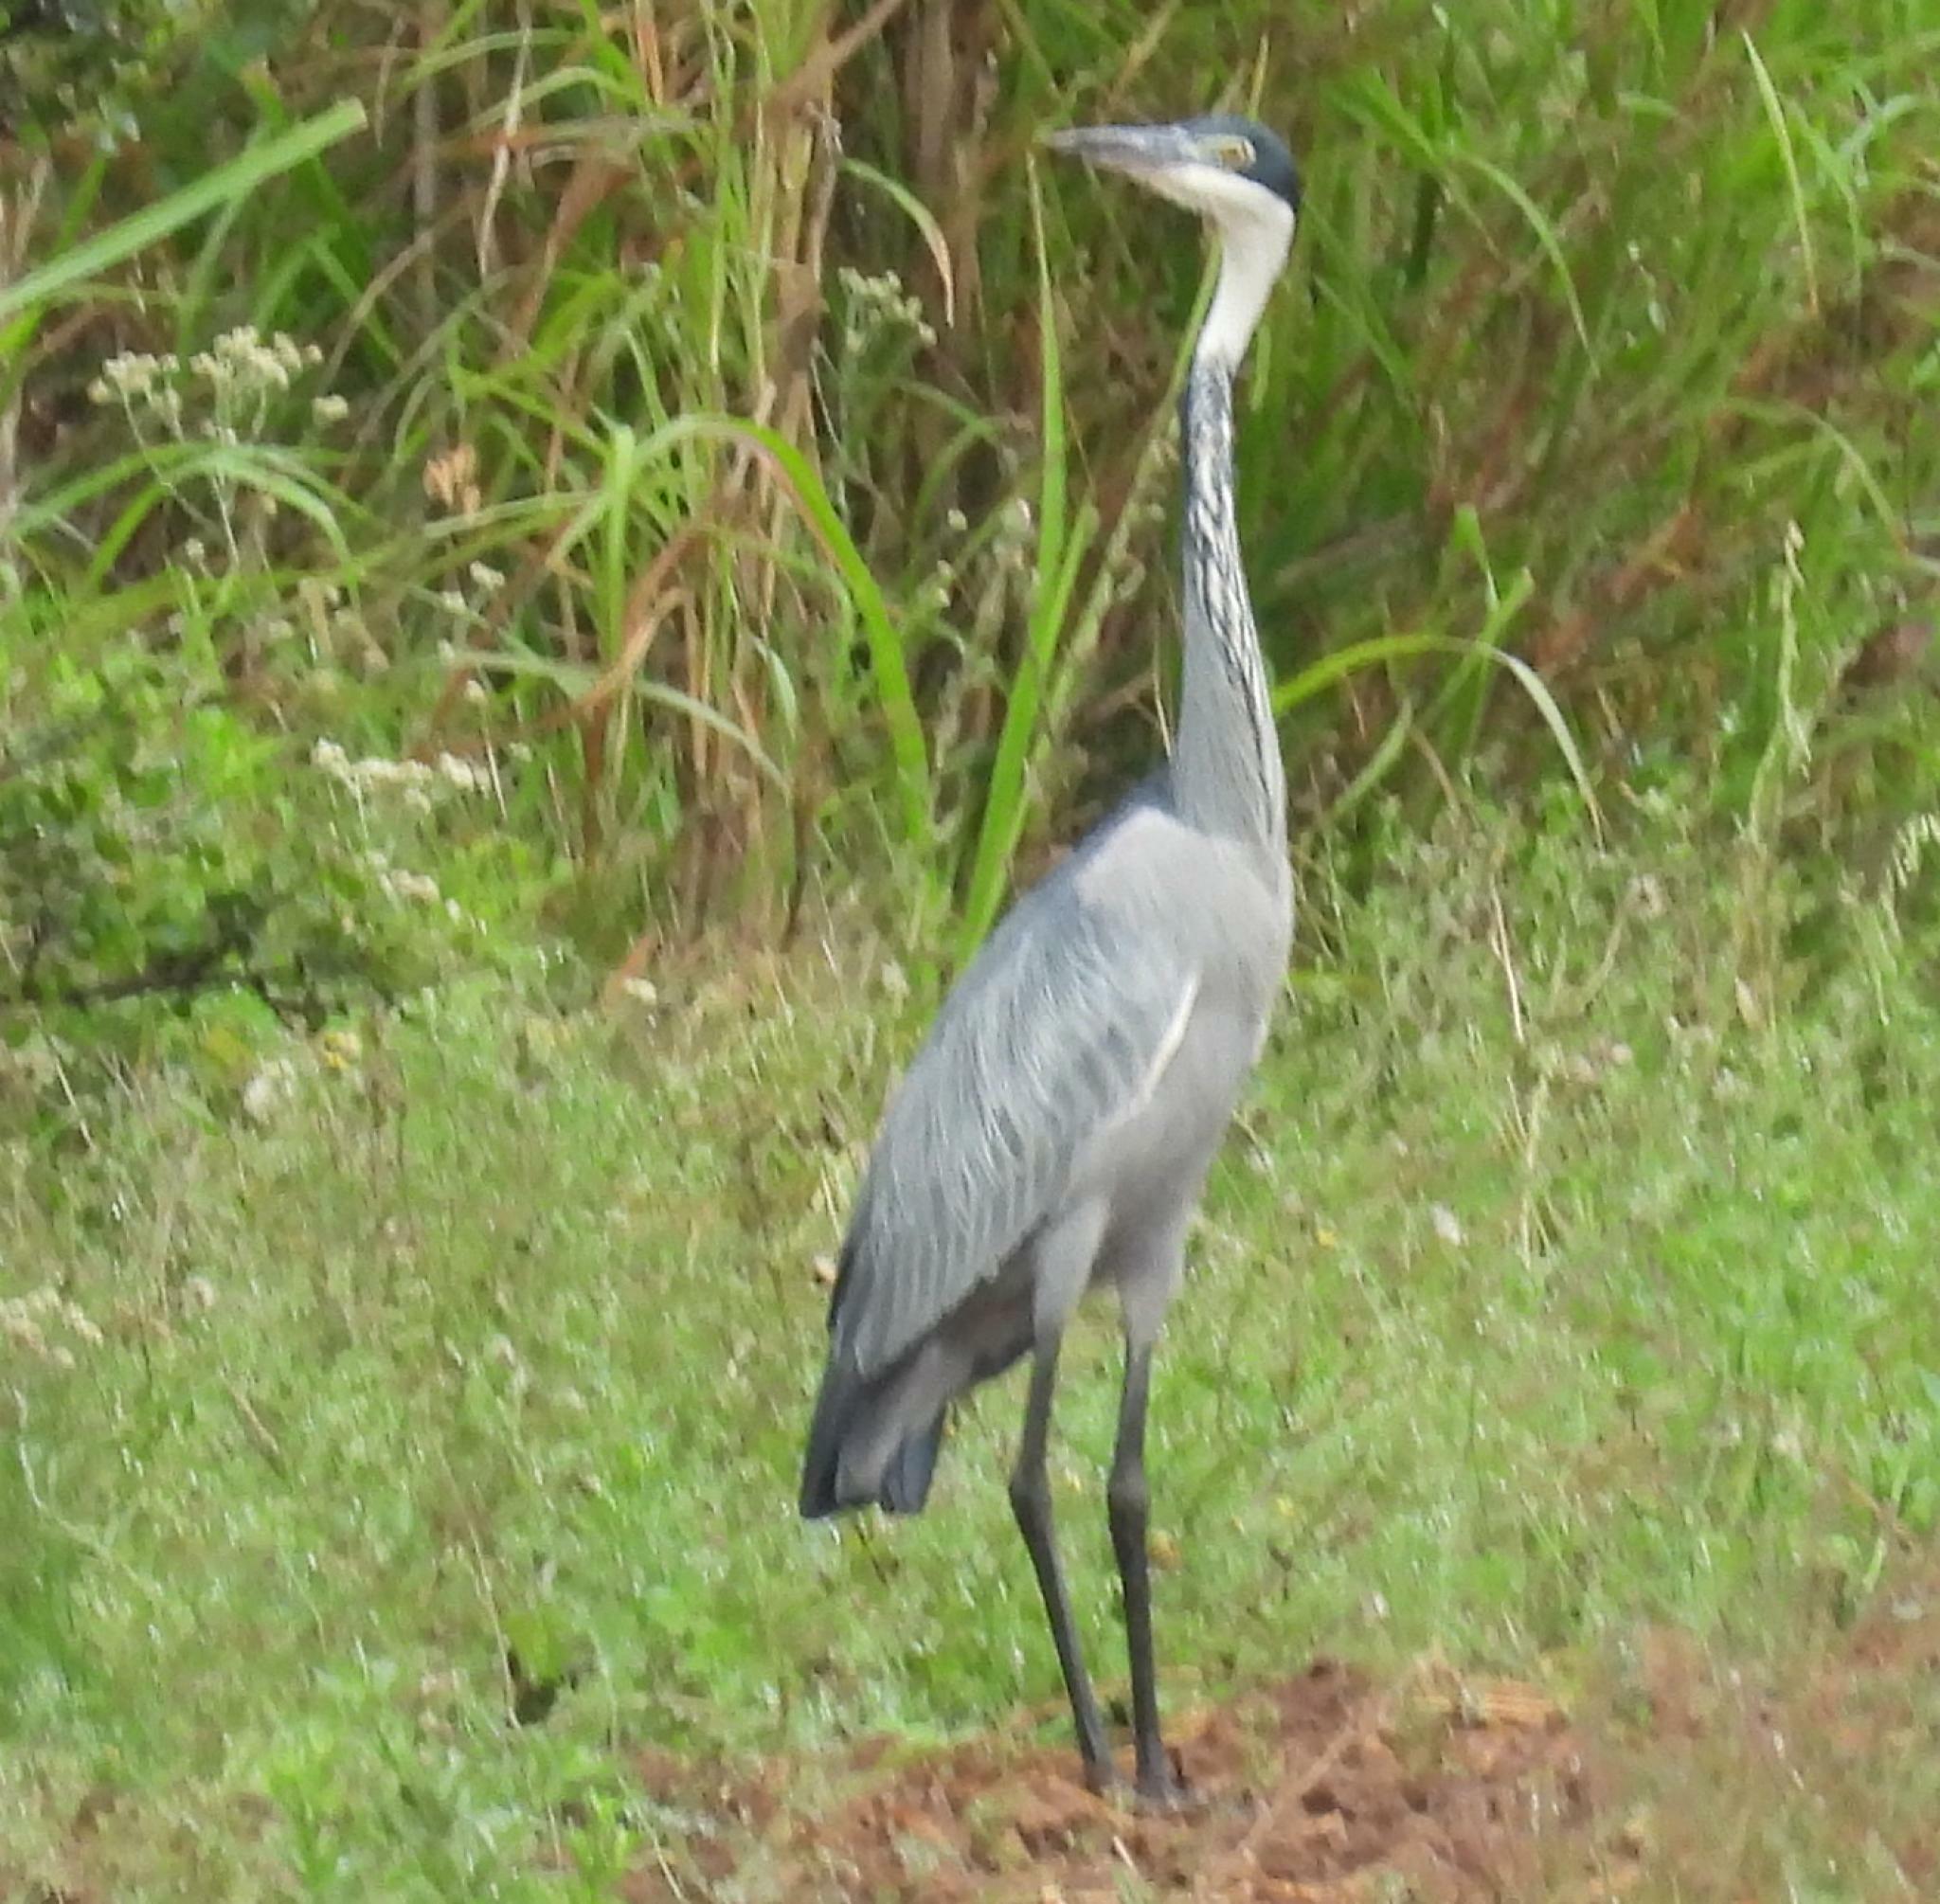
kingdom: Animalia
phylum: Chordata
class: Aves
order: Pelecaniformes
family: Ardeidae
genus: Ardea
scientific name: Ardea melanocephala
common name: Black-headed heron
